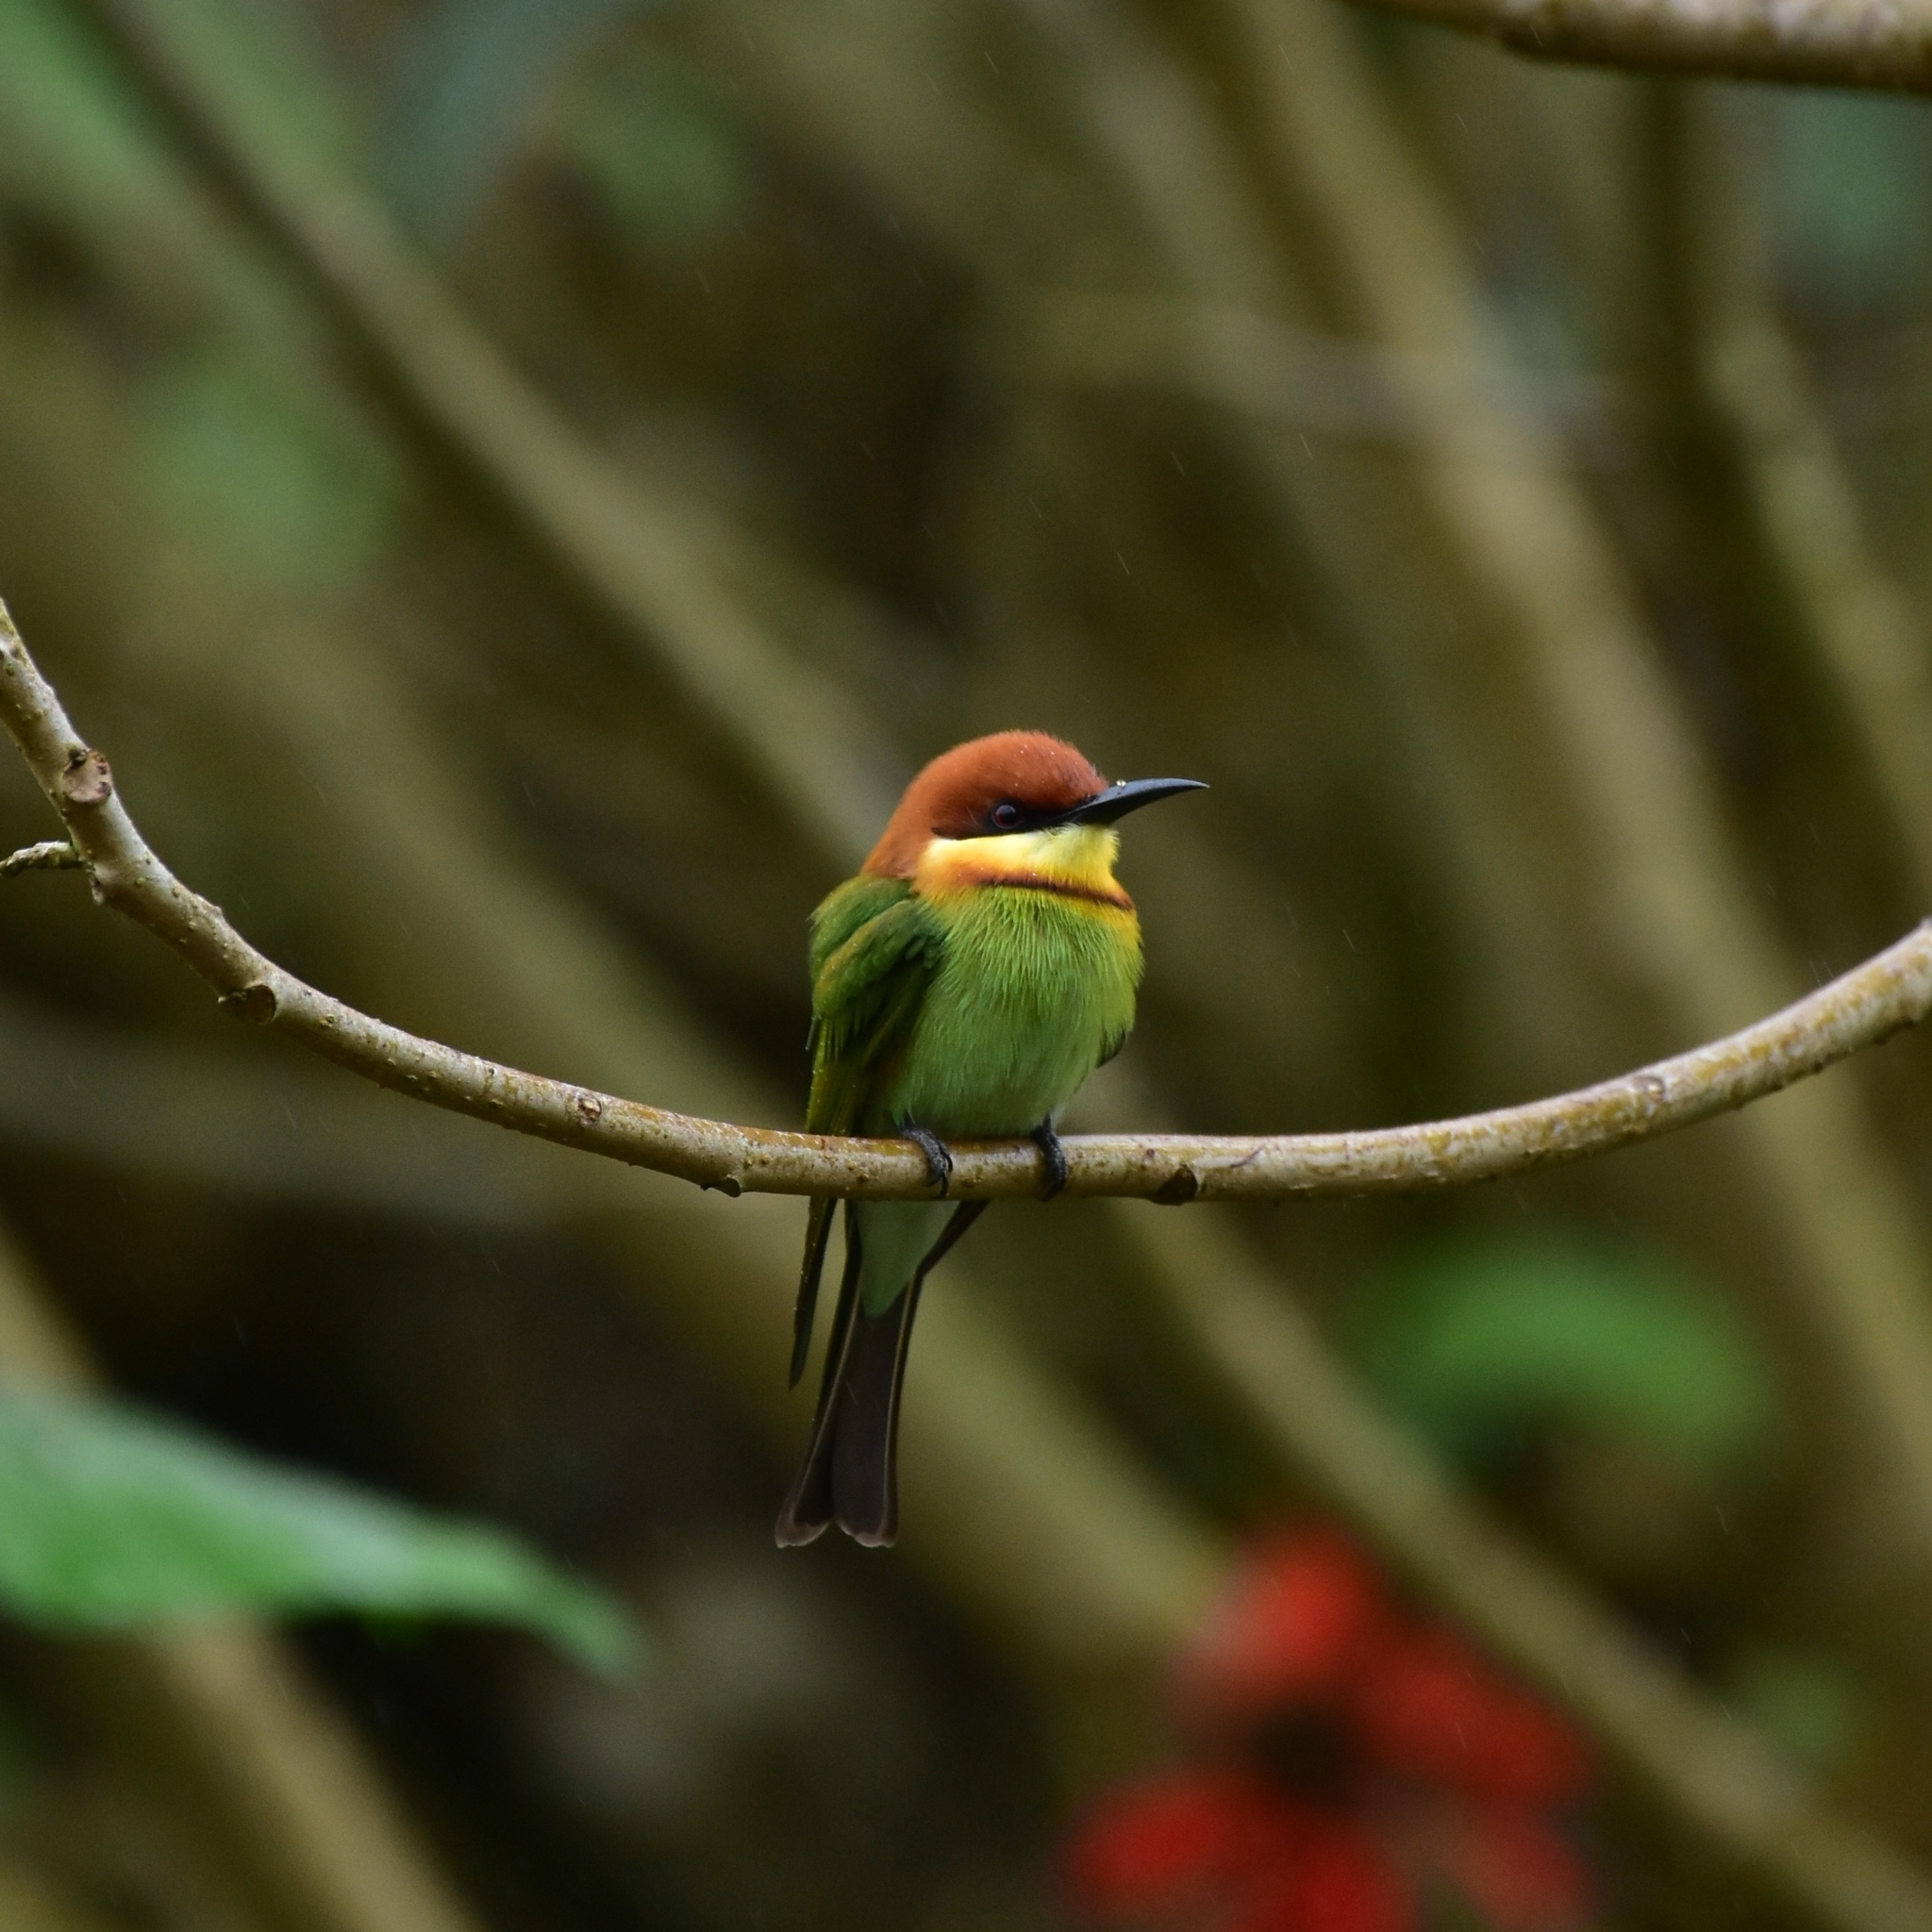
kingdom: Animalia
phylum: Chordata
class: Aves
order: Coraciiformes
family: Meropidae
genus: Merops
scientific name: Merops leschenaulti
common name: Chestnut-headed bee-eater
